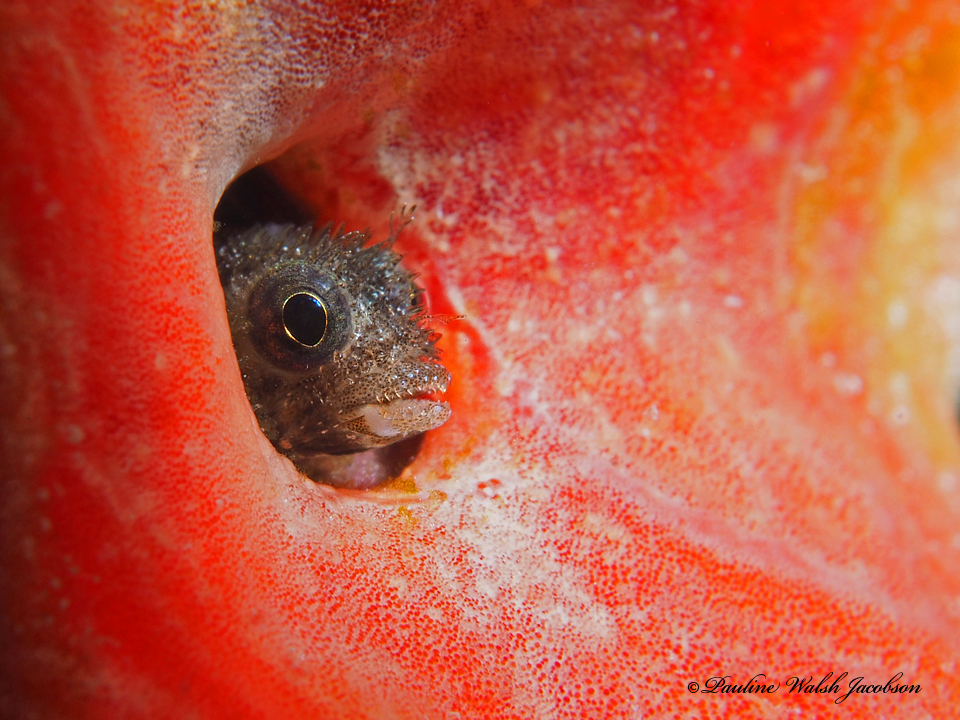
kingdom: Animalia
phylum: Chordata
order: Perciformes
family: Chaenopsidae
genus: Acanthemblemaria
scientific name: Acanthemblemaria spinosa
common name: Spinyhead blenny
